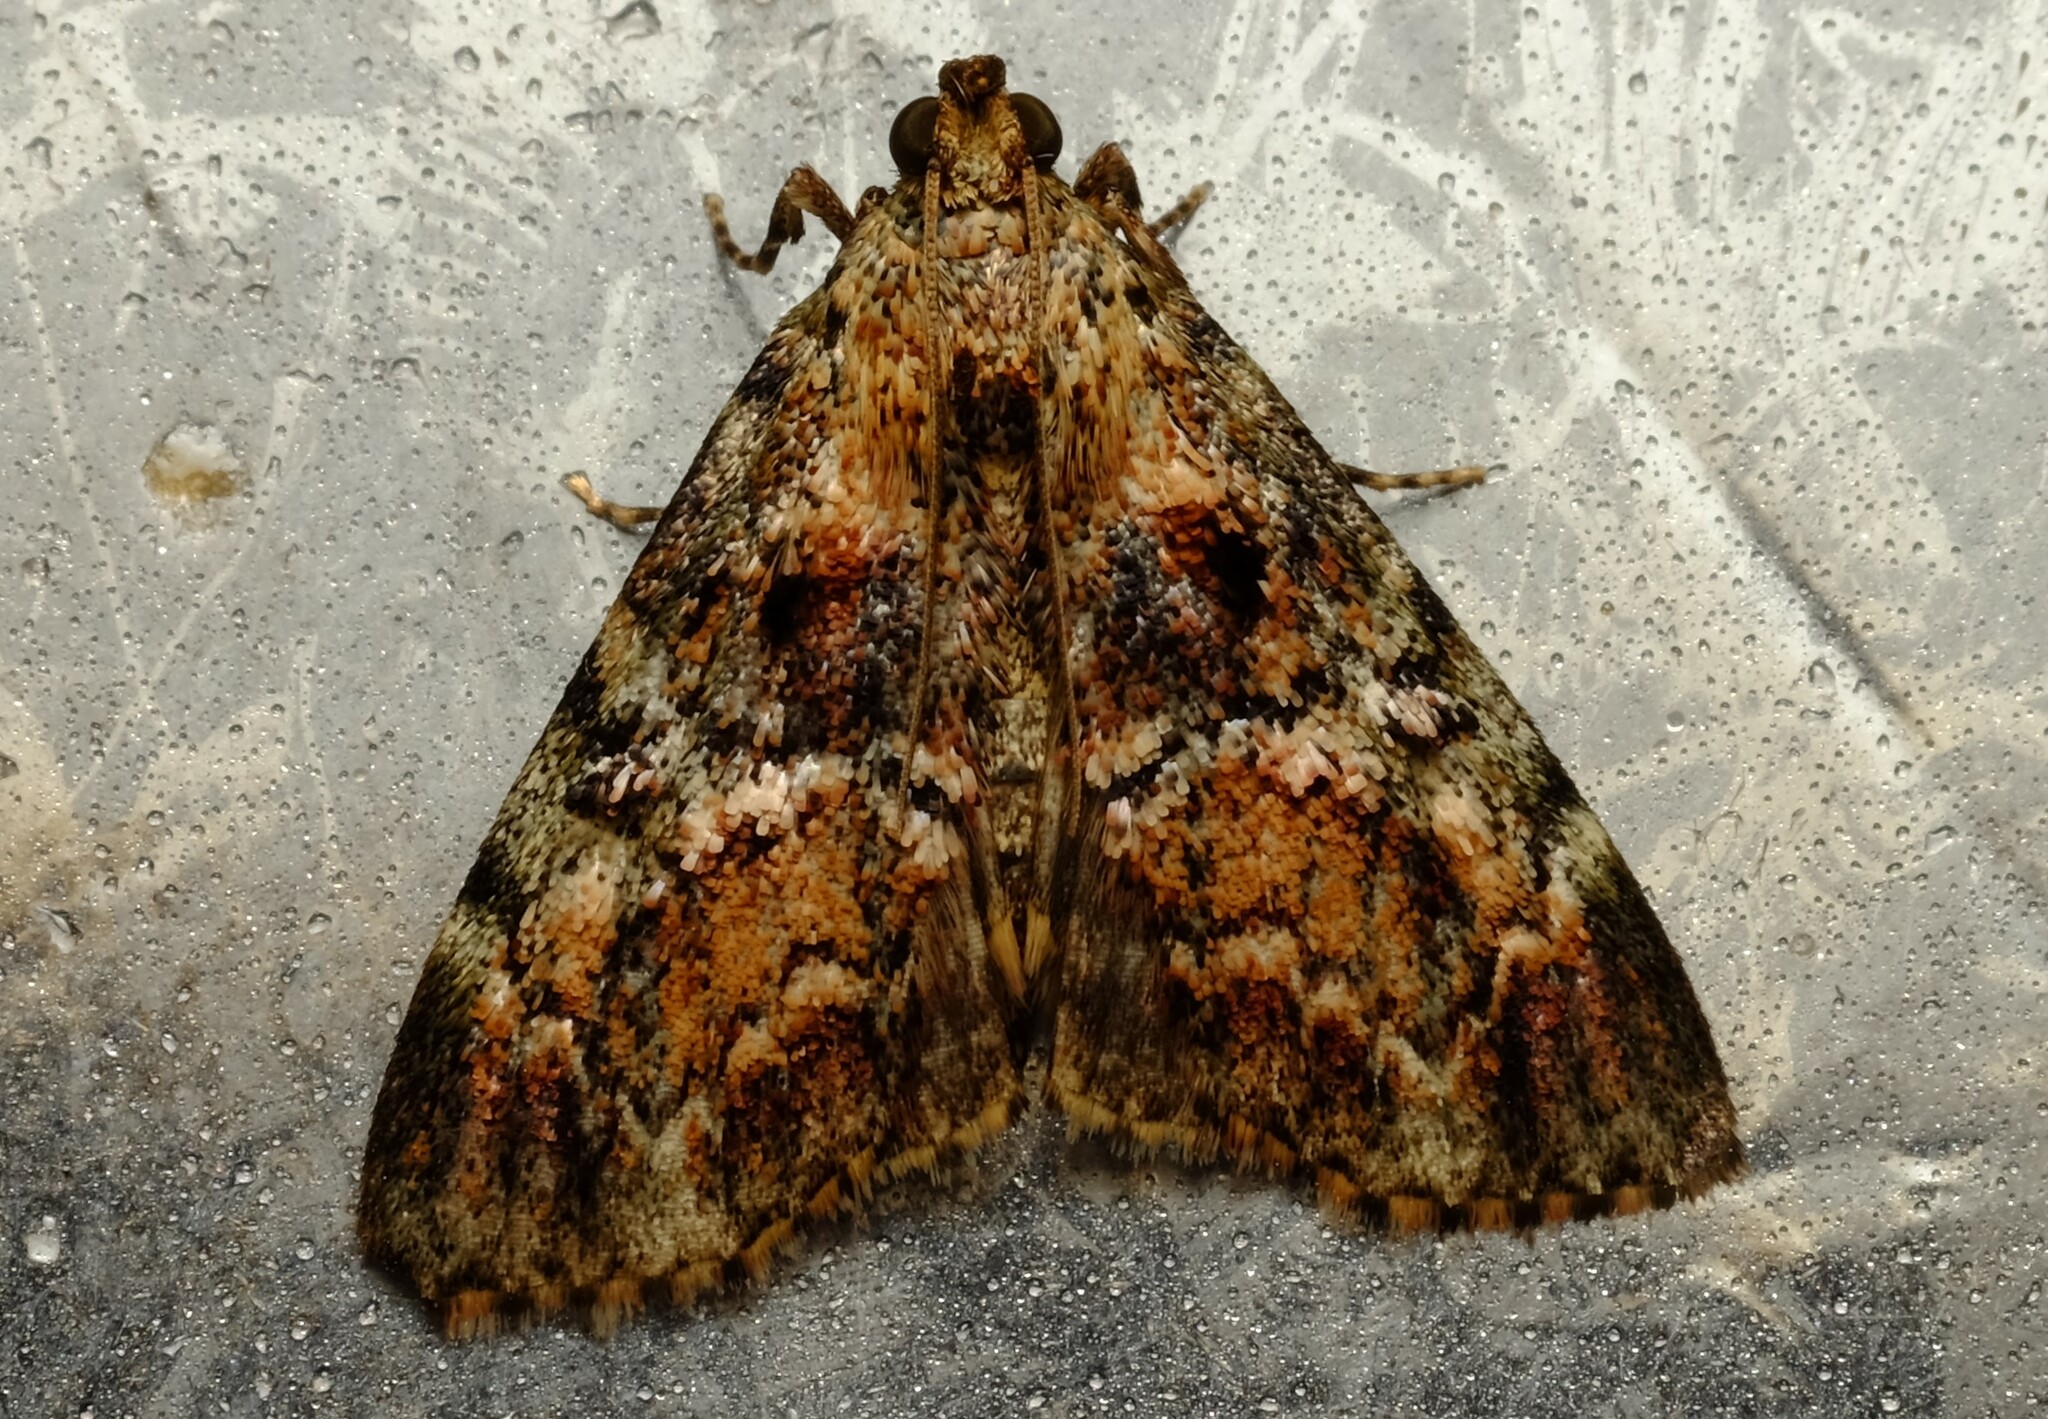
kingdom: Animalia
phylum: Arthropoda
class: Insecta
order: Lepidoptera
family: Pyralidae
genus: Orthaga
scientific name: Orthaga thyrisalis
